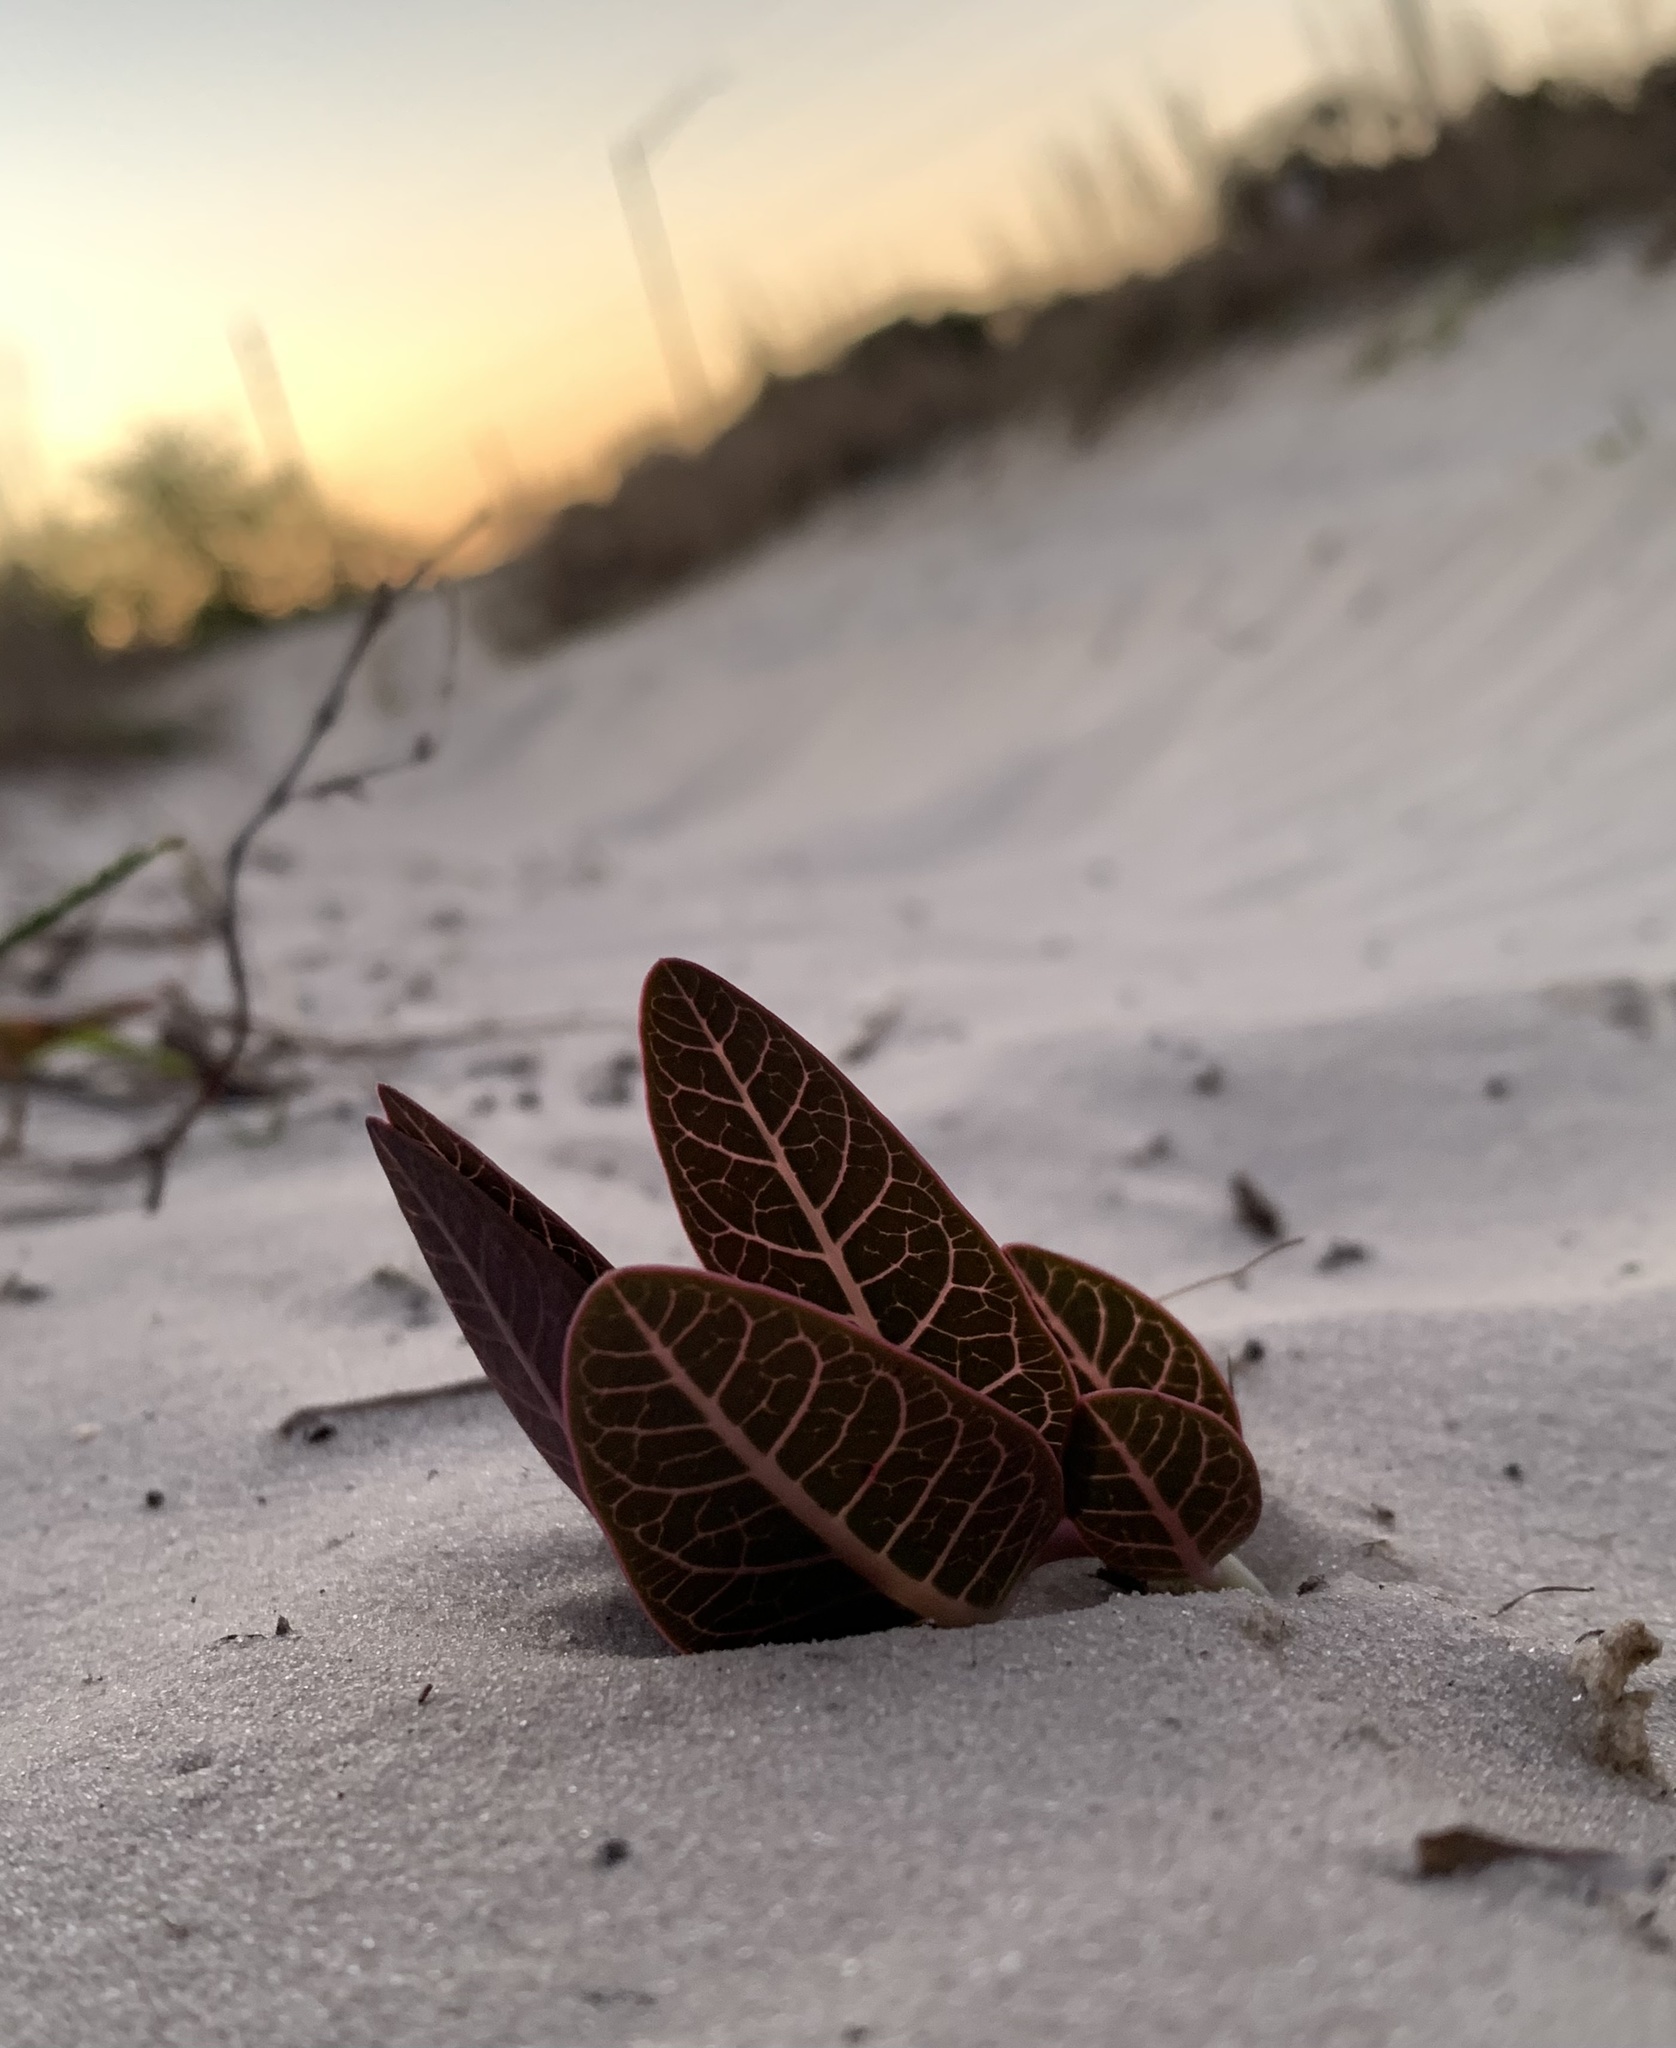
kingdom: Plantae
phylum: Tracheophyta
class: Magnoliopsida
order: Gentianales
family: Apocynaceae
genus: Asclepias
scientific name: Asclepias humistrata
